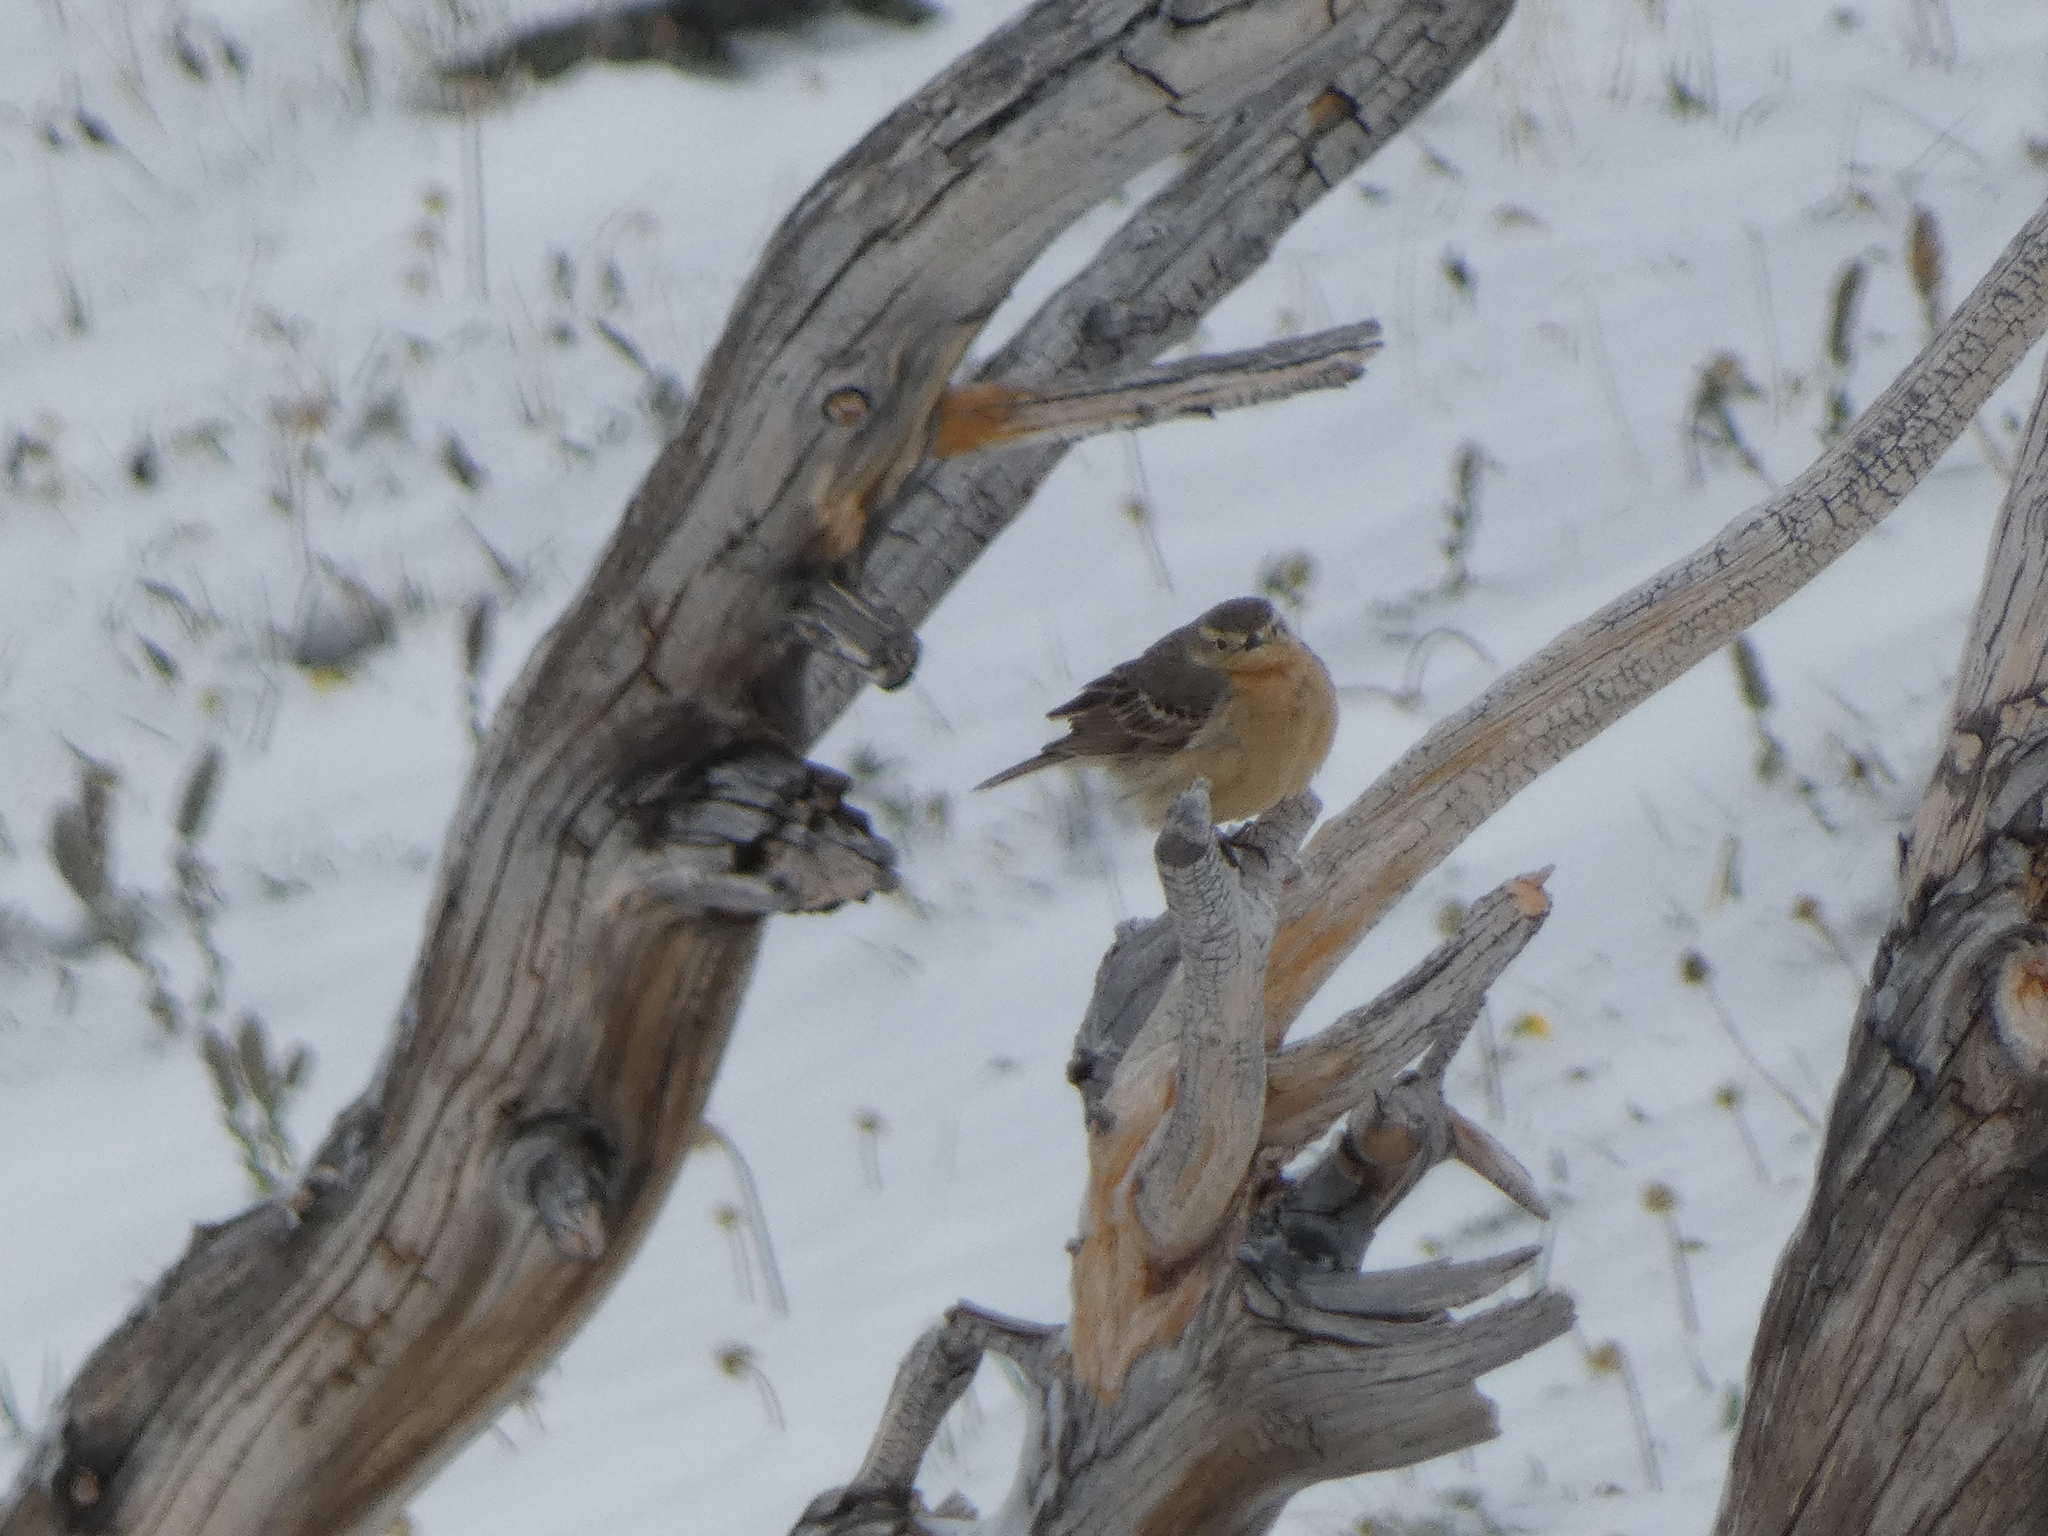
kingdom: Animalia
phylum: Chordata
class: Aves
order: Passeriformes
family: Motacillidae
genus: Anthus
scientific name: Anthus rubescens
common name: Buff-bellied pipit
